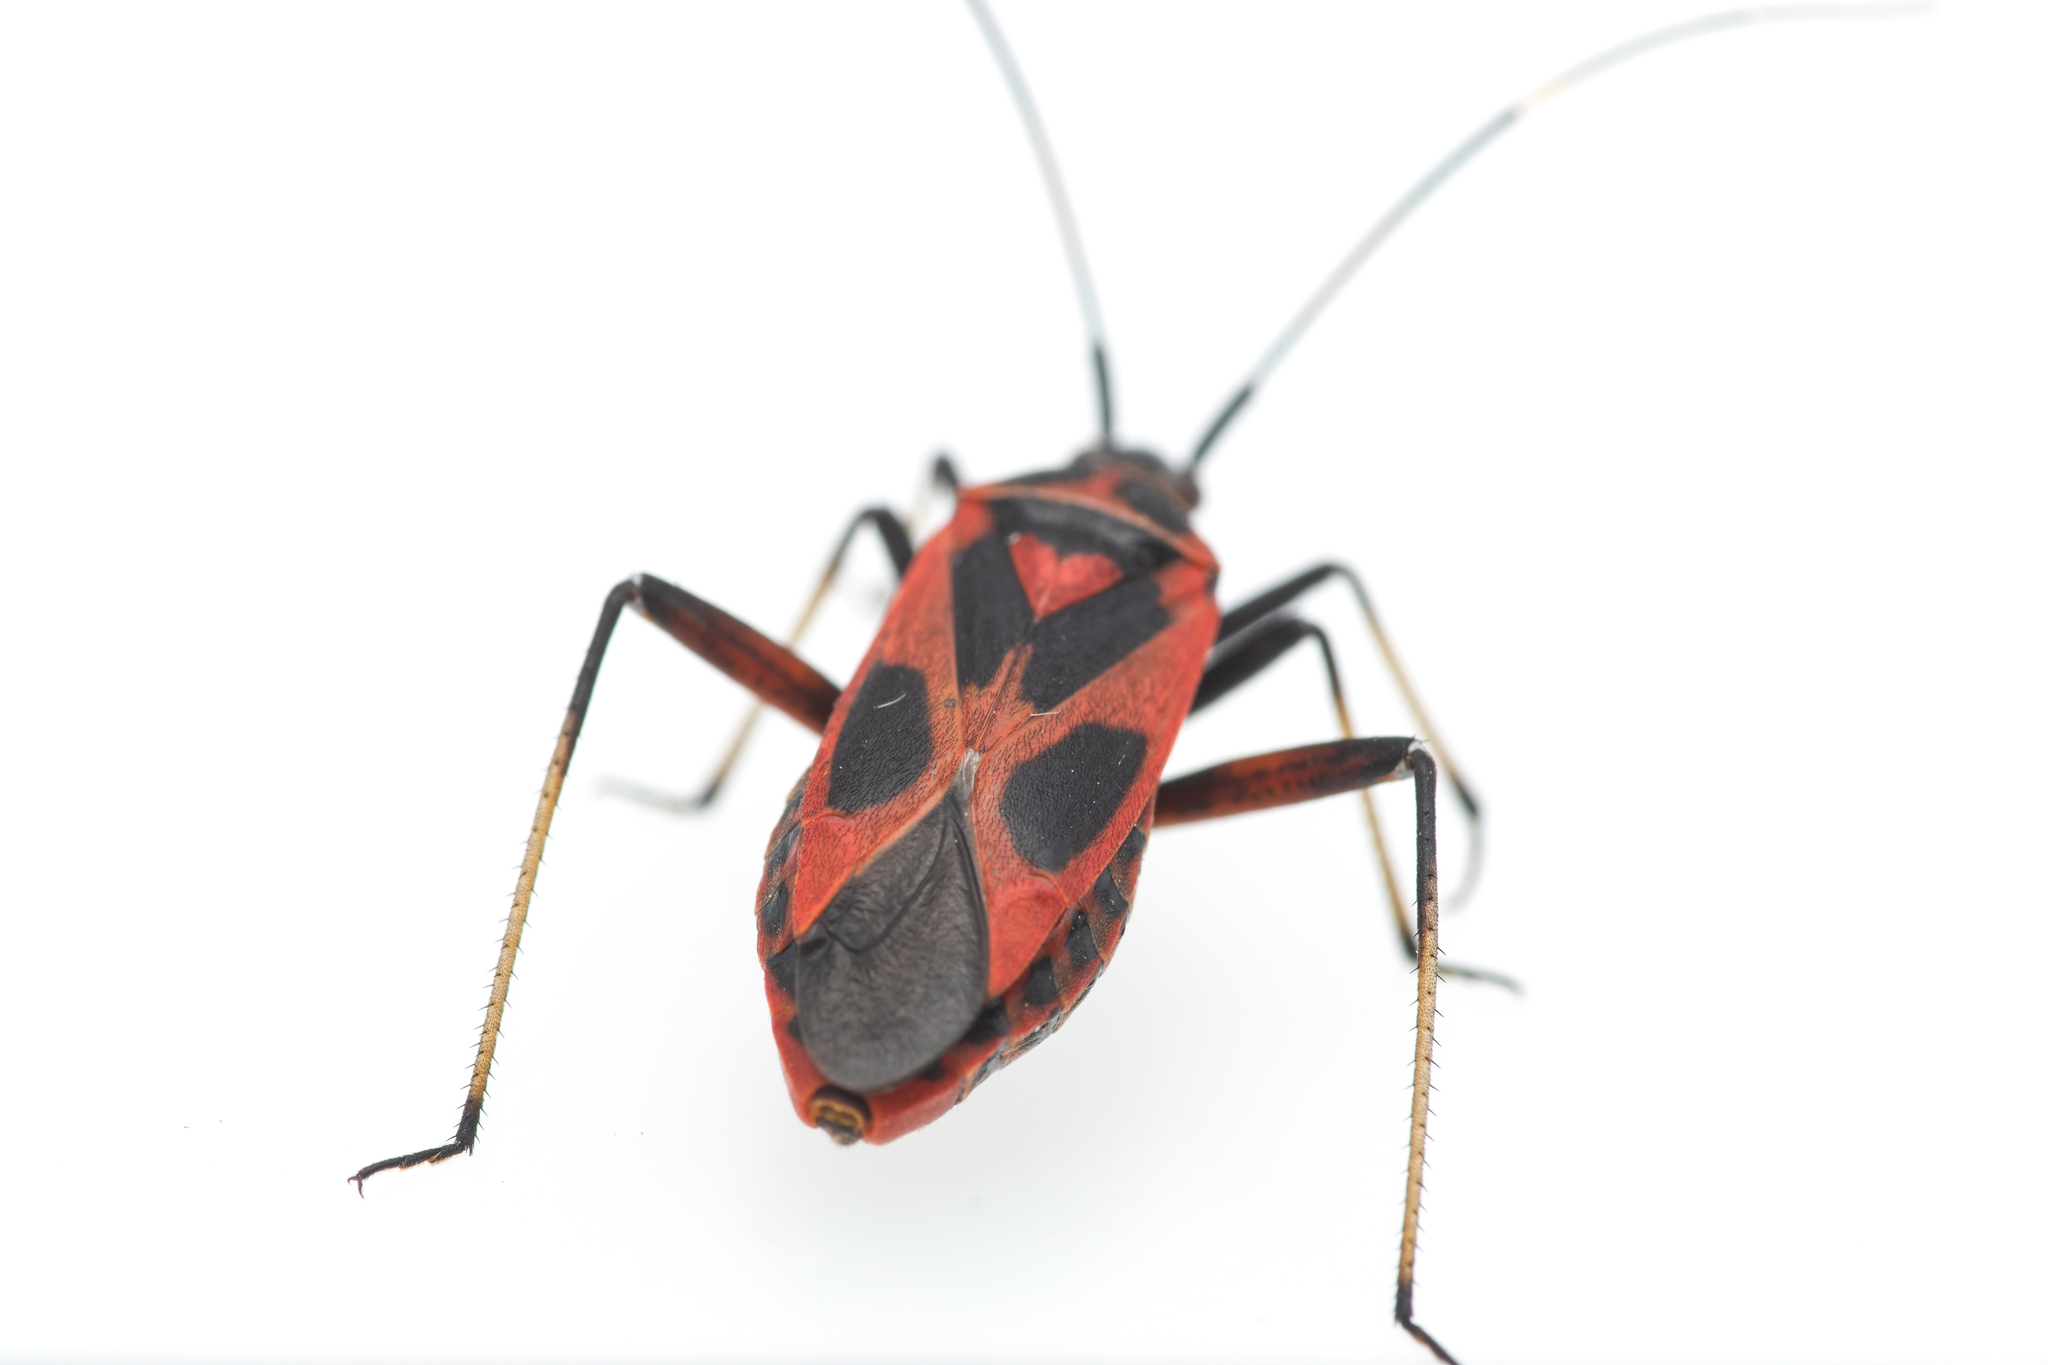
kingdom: Animalia
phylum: Arthropoda
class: Insecta
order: Hemiptera
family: Miridae
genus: Calocoris
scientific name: Calocoris nemoralis
